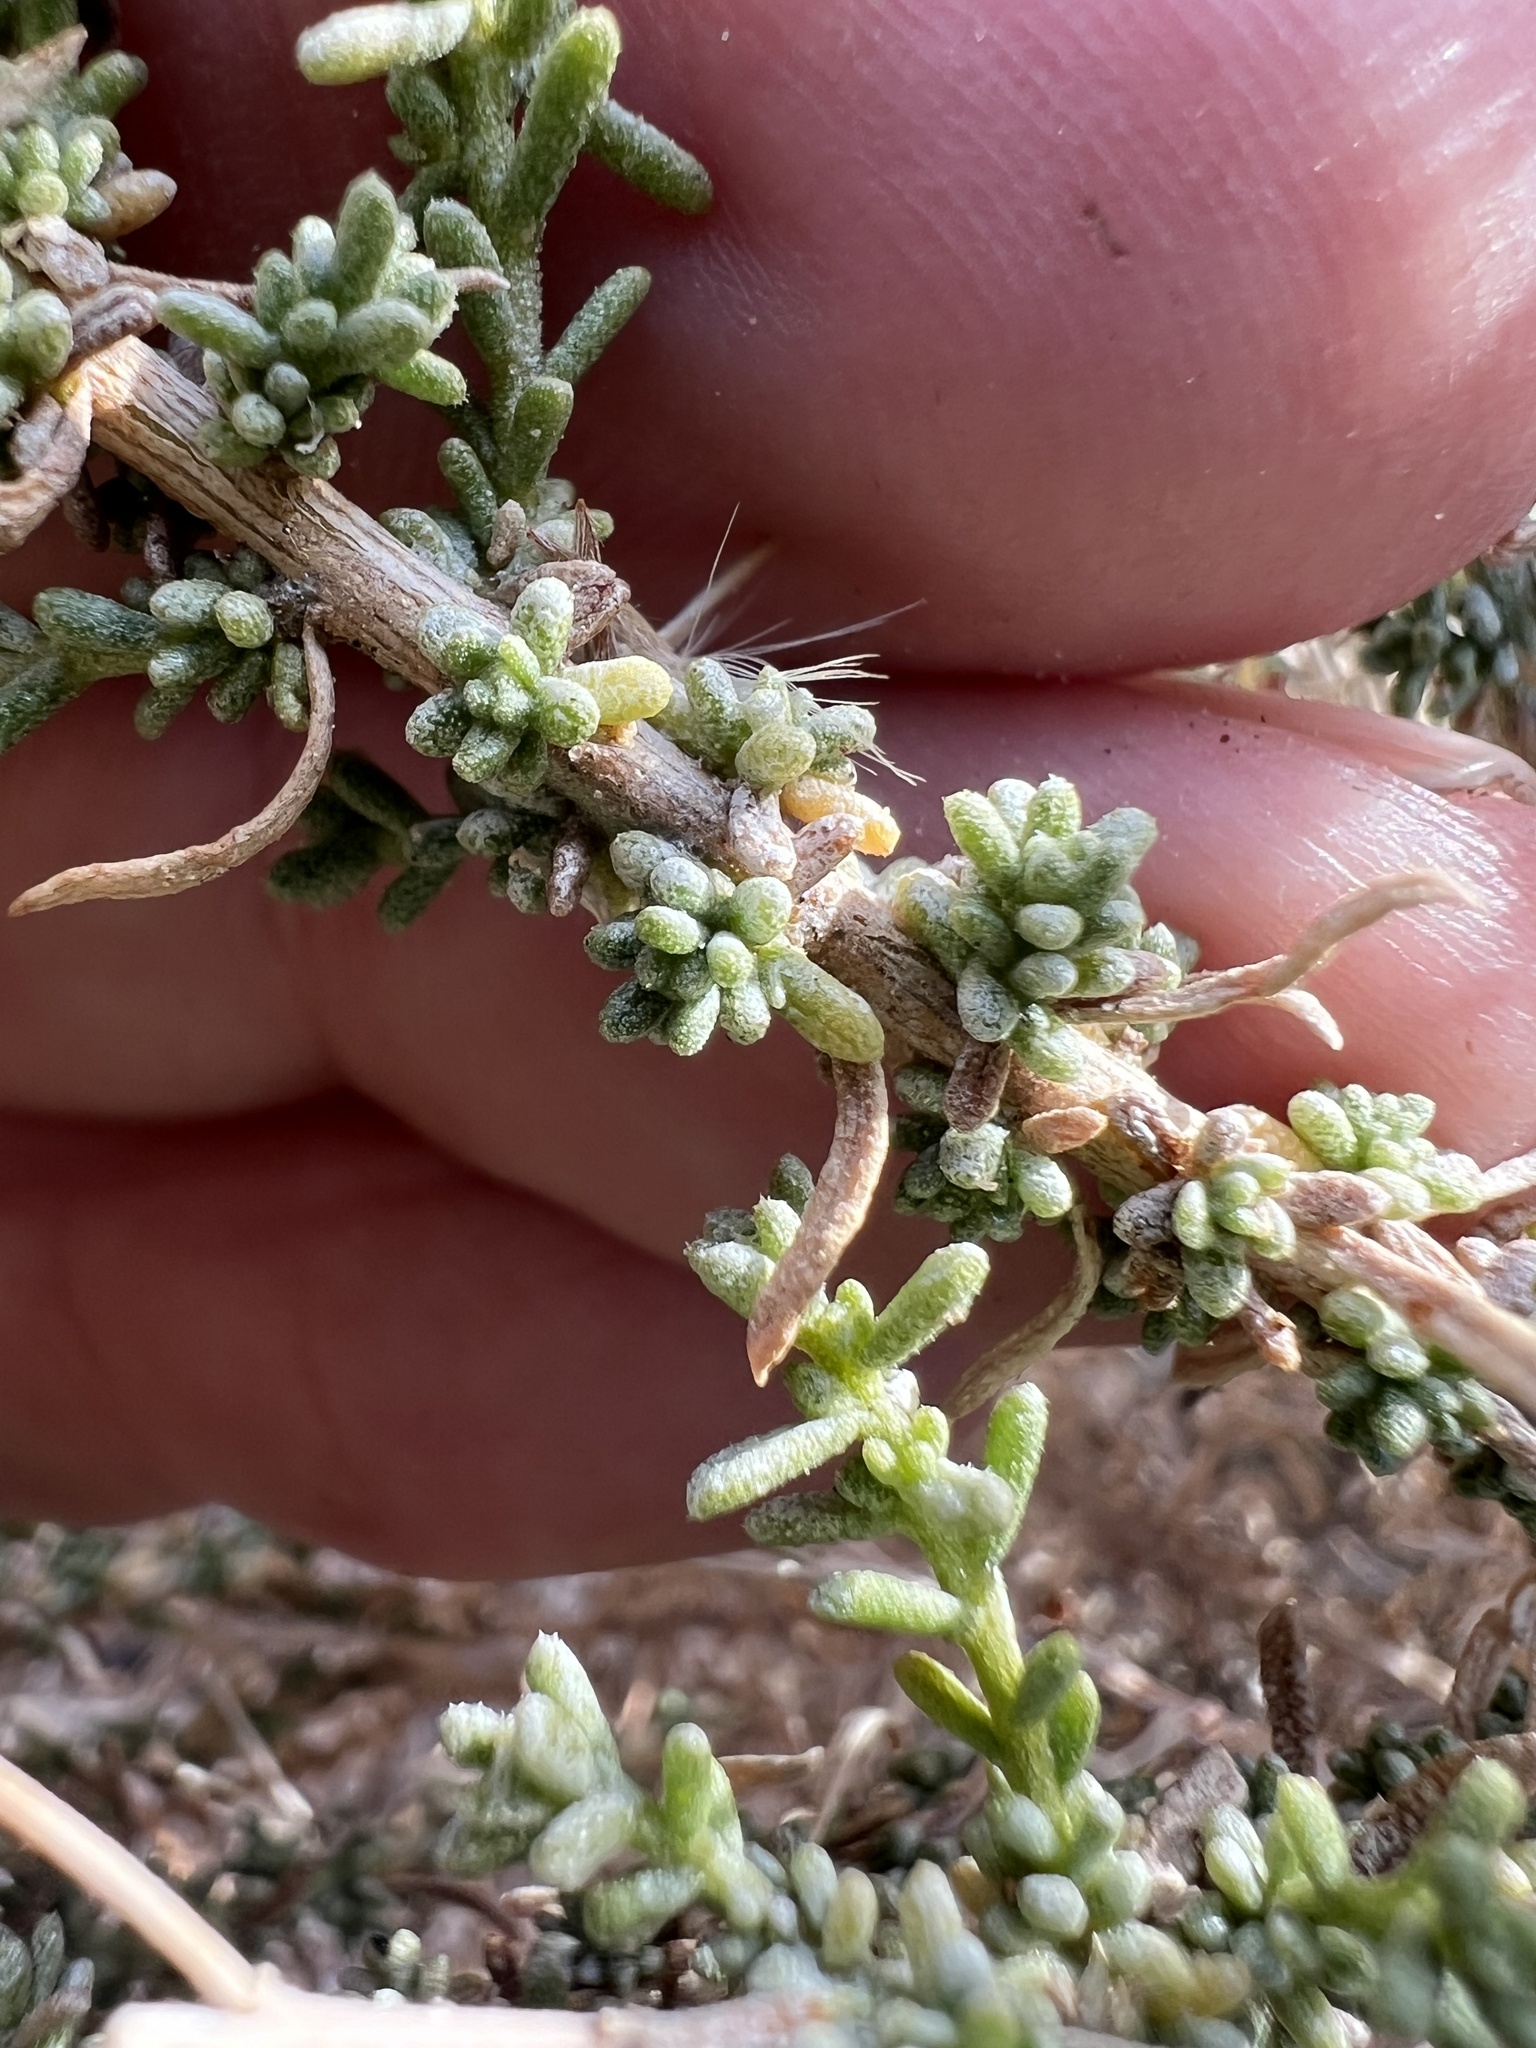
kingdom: Plantae
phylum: Tracheophyta
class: Magnoliopsida
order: Asterales
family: Asteraceae
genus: Ericameria
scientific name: Ericameria cooperi
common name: Cooper's goldenbush
